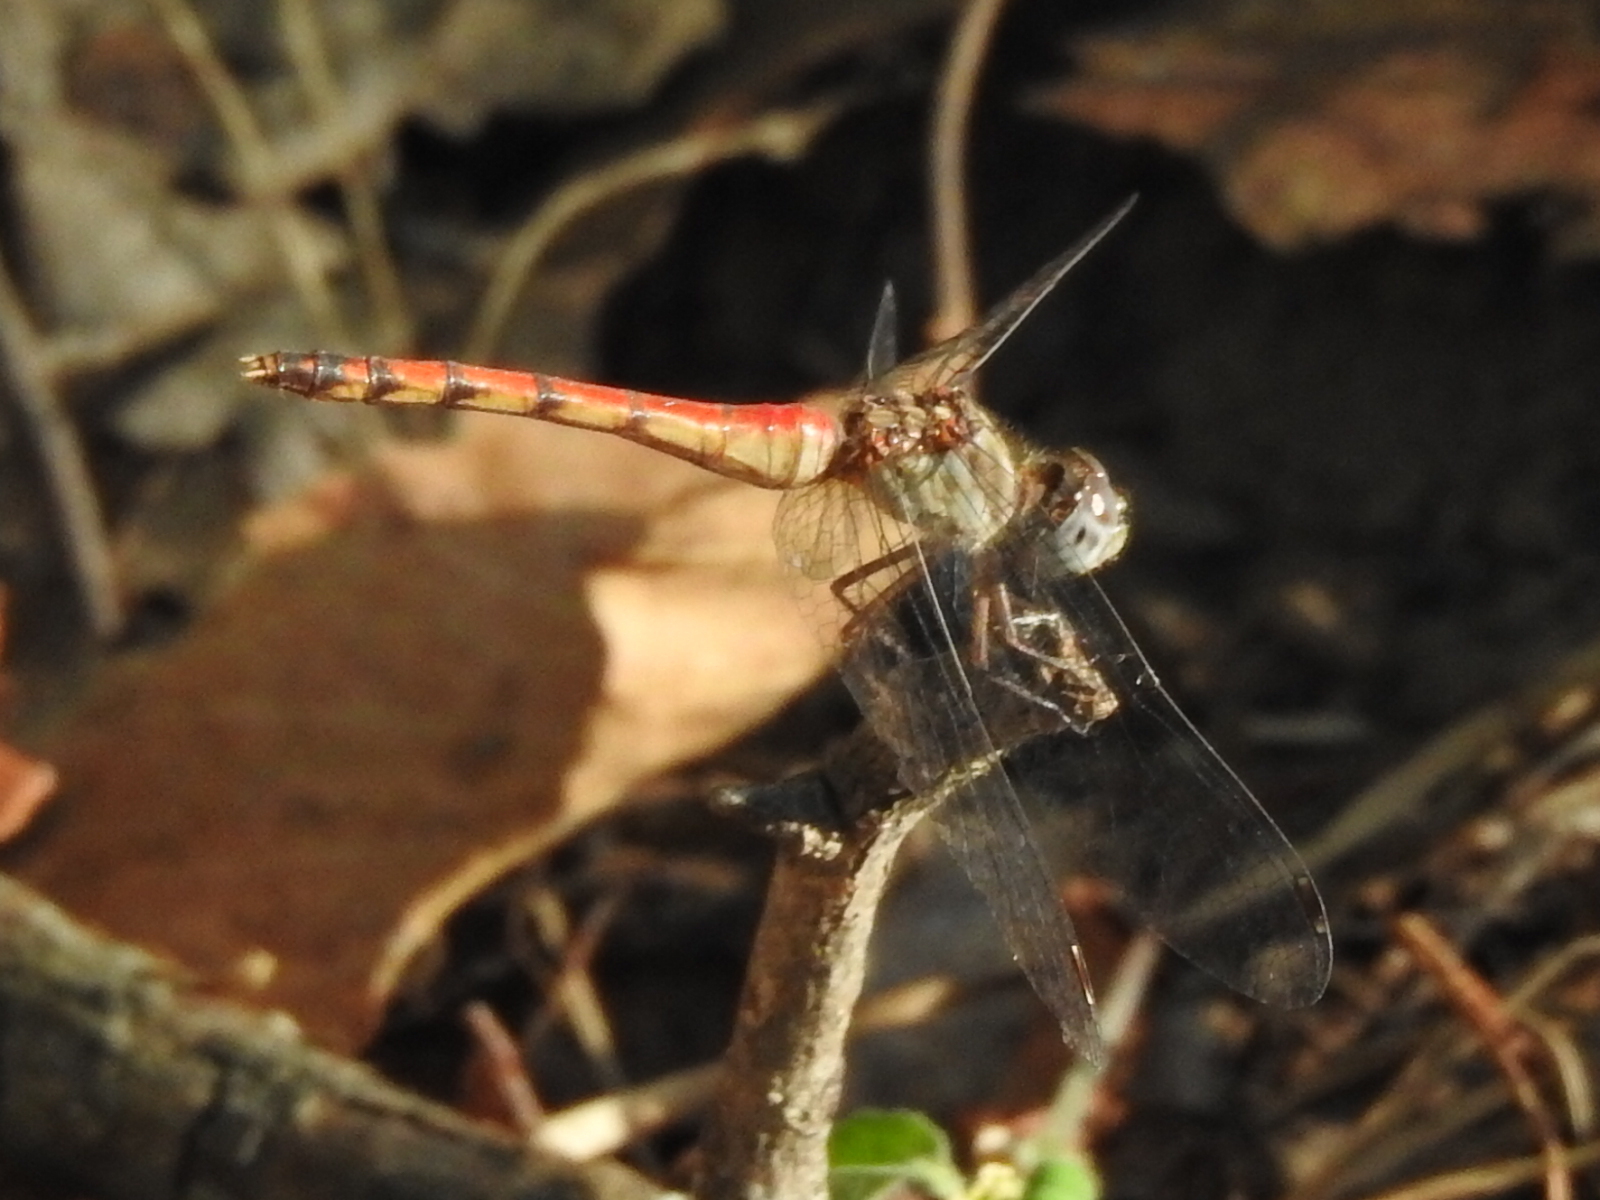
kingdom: Animalia
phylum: Arthropoda
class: Insecta
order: Odonata
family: Libellulidae
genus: Sympetrum
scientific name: Sympetrum ambiguum
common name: Blue-faced meadowhawk
